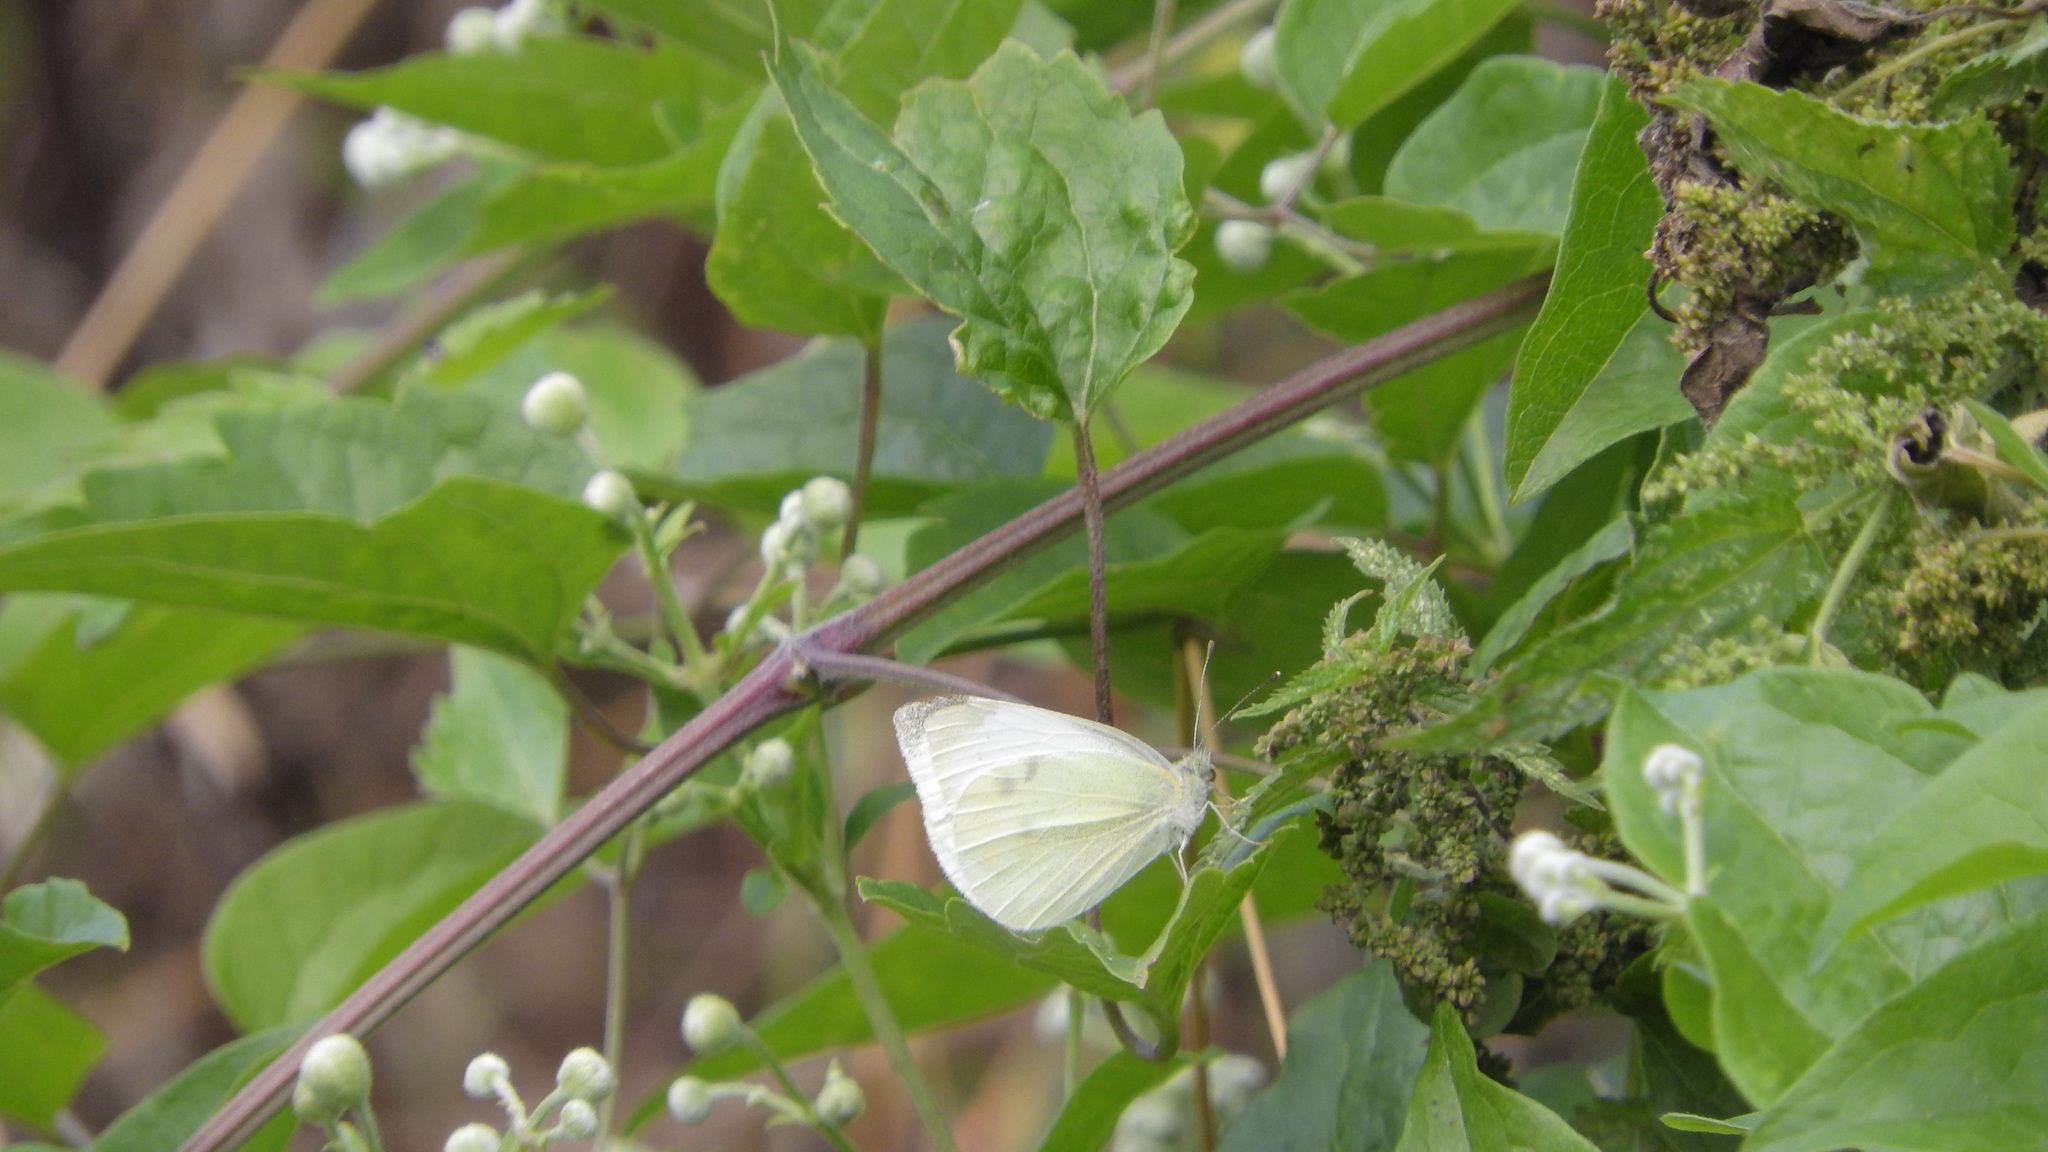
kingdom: Animalia
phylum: Arthropoda
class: Insecta
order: Lepidoptera
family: Pieridae
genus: Pieris
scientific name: Pieris rapae
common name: Small white
